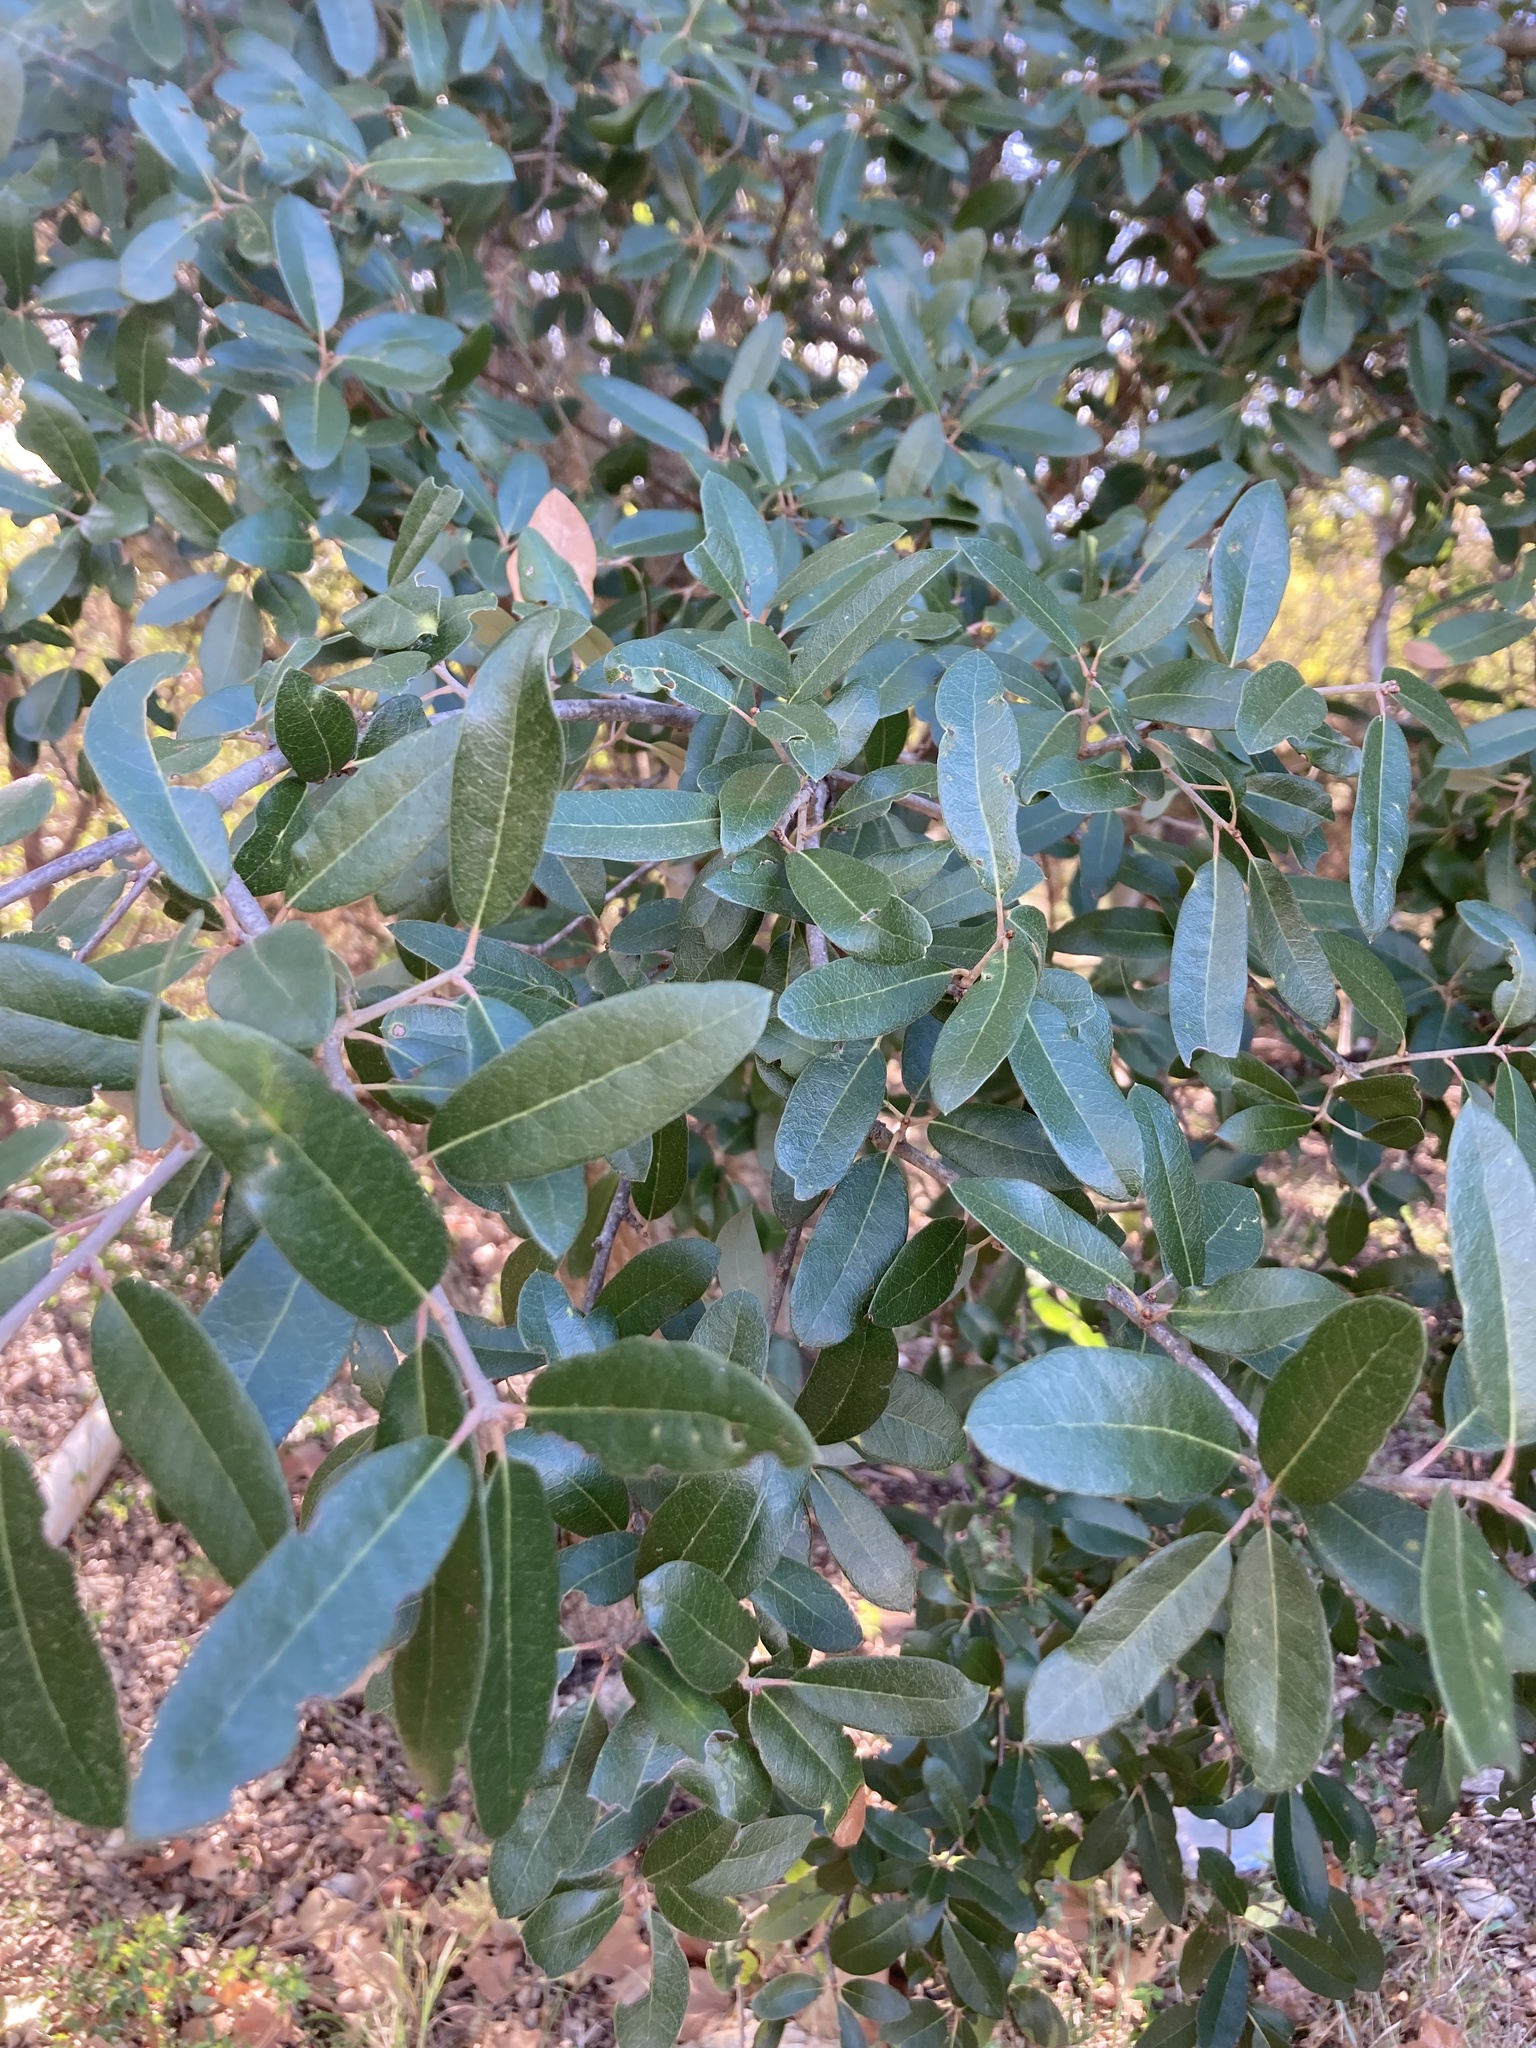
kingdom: Plantae
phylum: Tracheophyta
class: Magnoliopsida
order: Fagales
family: Fagaceae
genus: Quercus
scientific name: Quercus fusiformis
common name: Texas live oak
